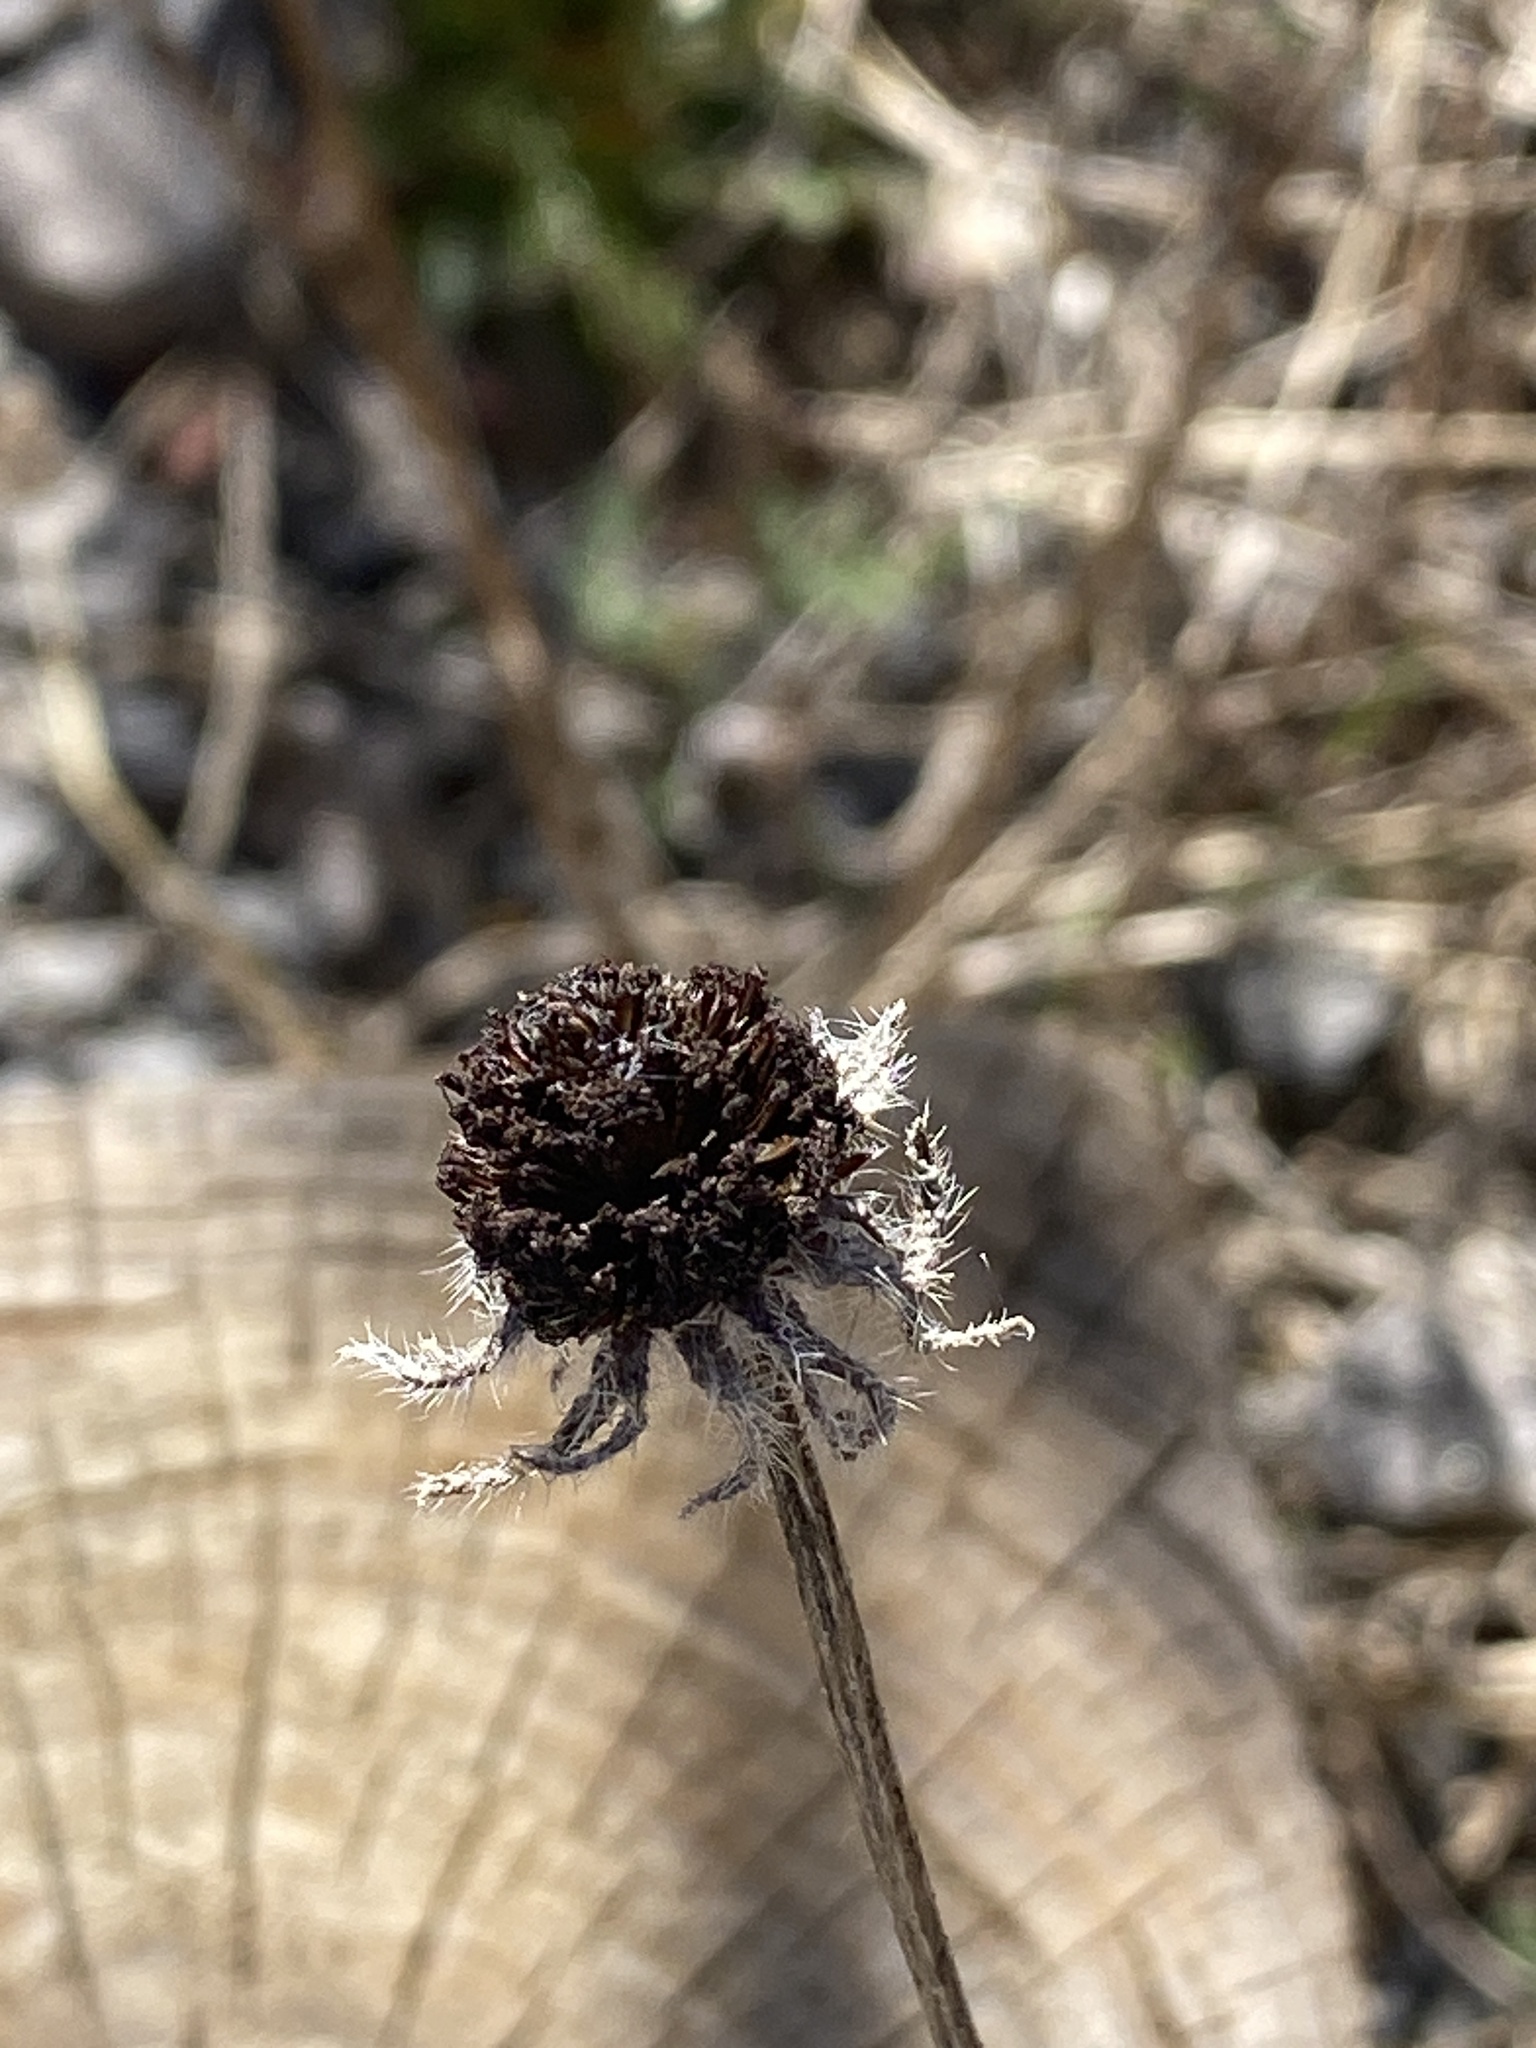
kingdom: Plantae
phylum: Tracheophyta
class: Magnoliopsida
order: Asterales
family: Asteraceae
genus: Rudbeckia
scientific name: Rudbeckia hirta
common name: Black-eyed-susan
